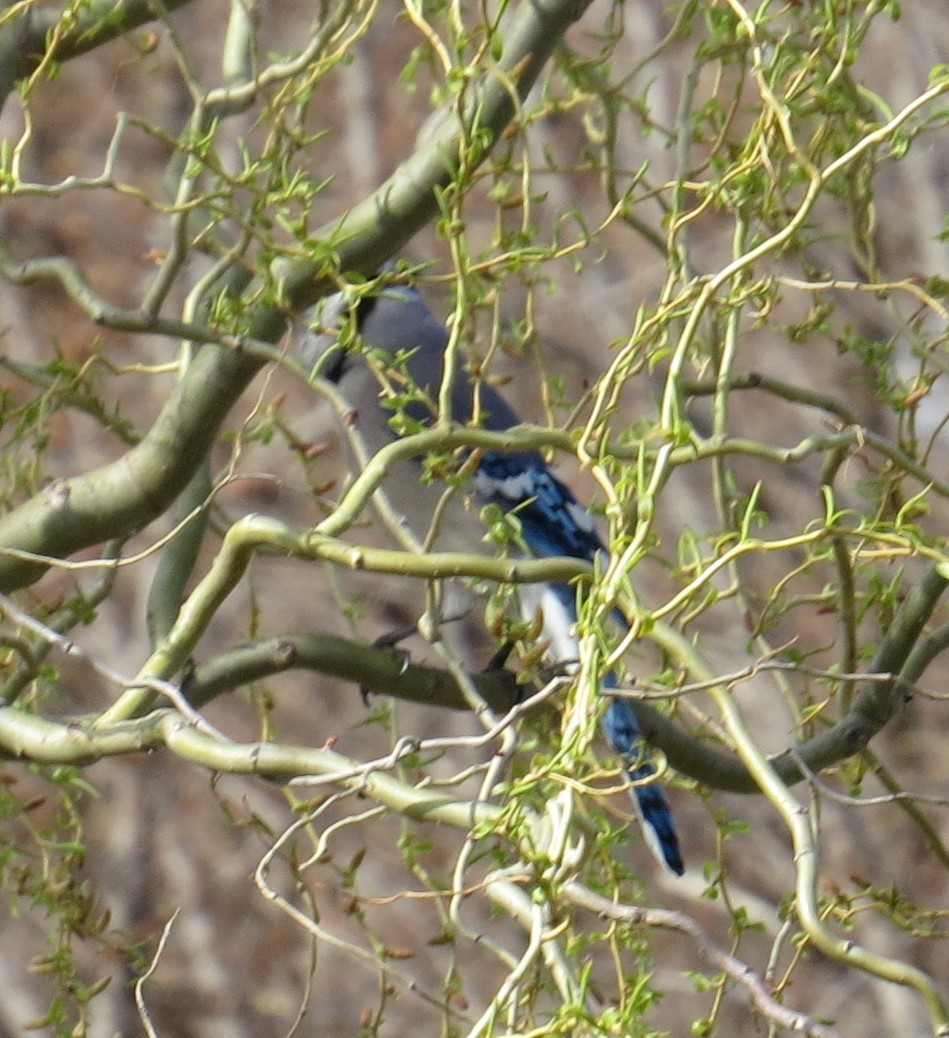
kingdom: Animalia
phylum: Chordata
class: Aves
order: Passeriformes
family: Corvidae
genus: Cyanocitta
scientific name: Cyanocitta cristata
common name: Blue jay
